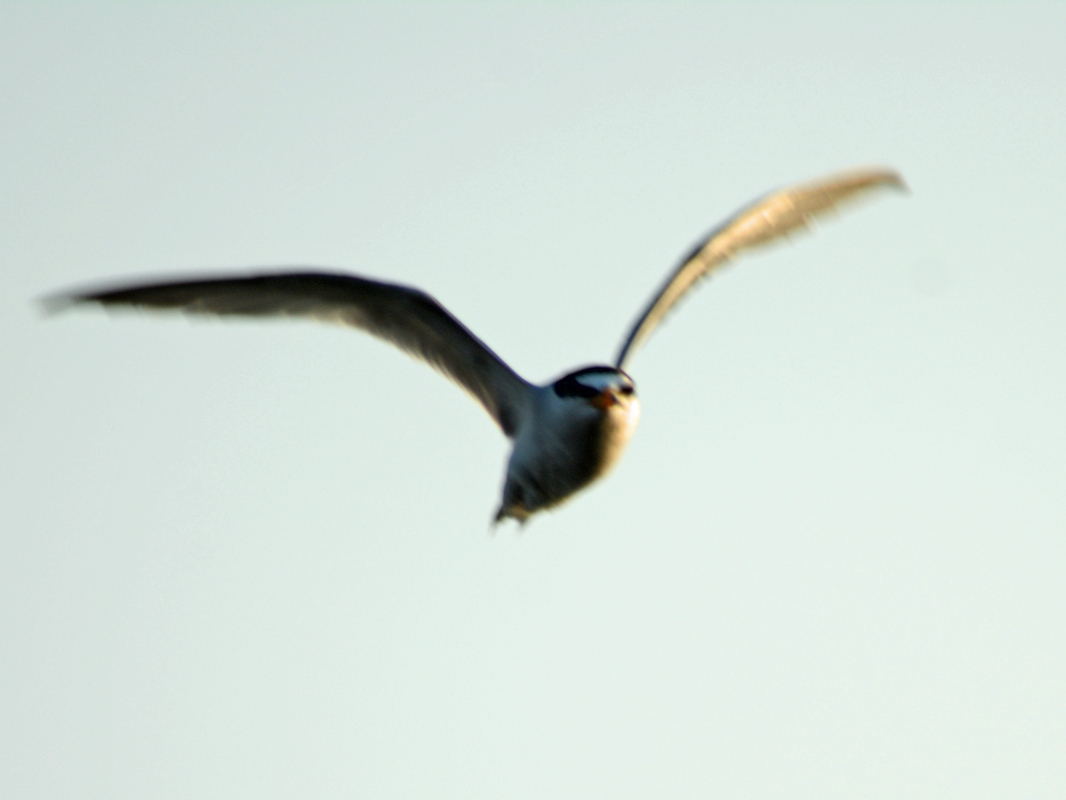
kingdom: Animalia
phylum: Chordata
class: Aves
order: Charadriiformes
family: Laridae
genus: Sternula
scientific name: Sternula antillarum
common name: Least tern
